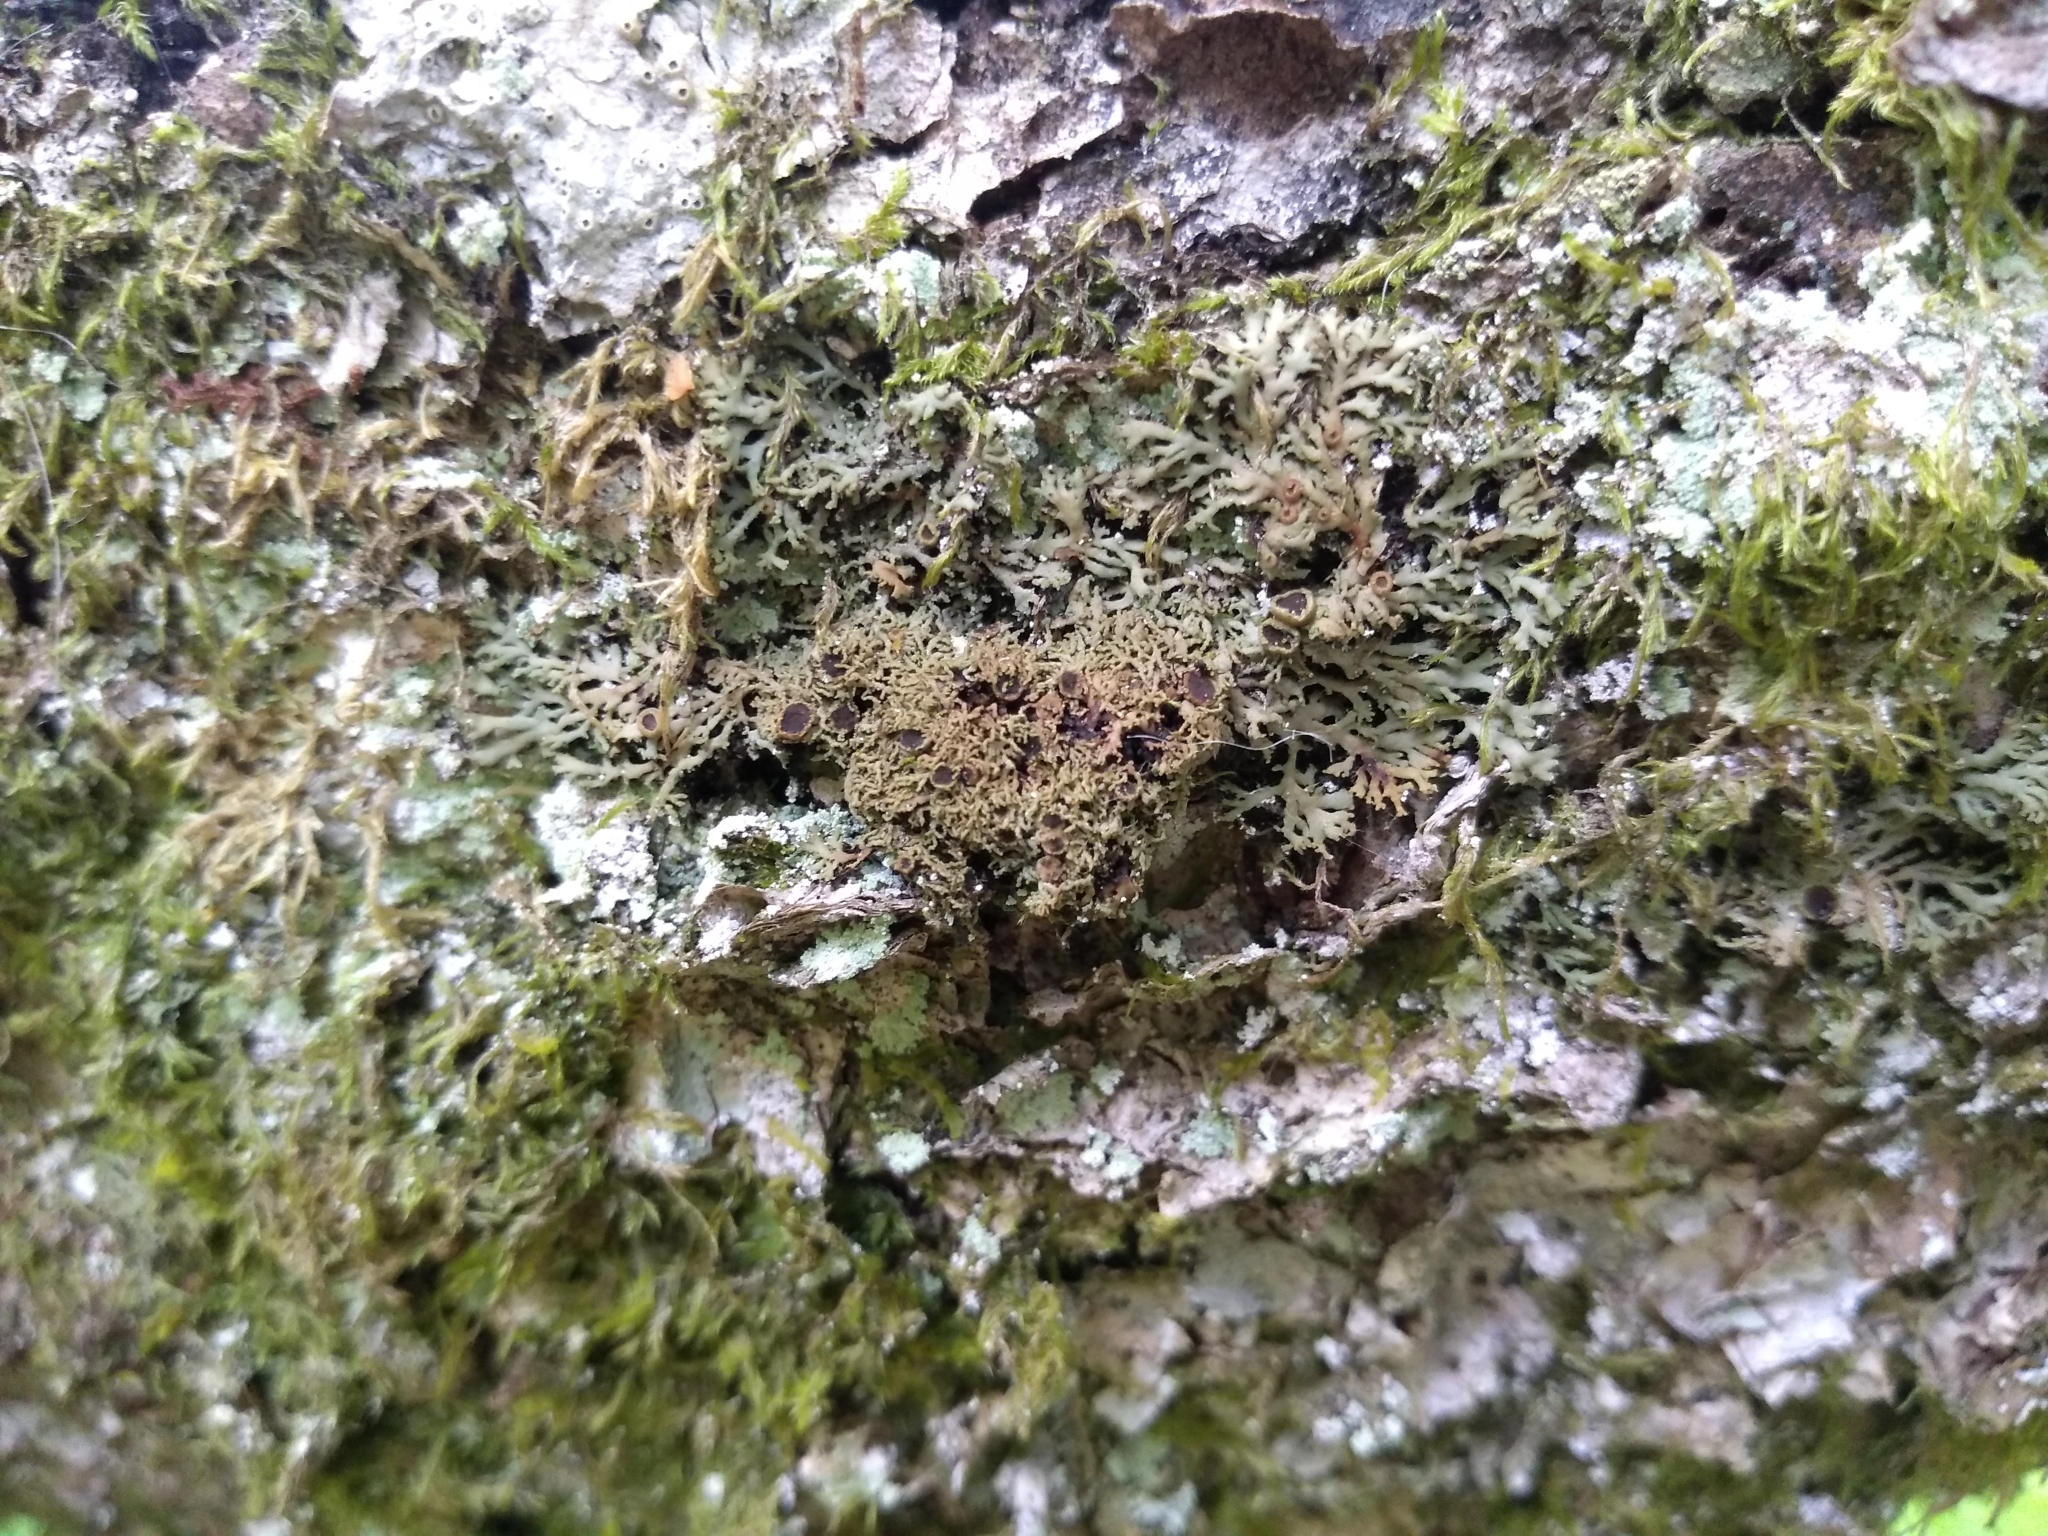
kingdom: Fungi
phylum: Ascomycota
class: Lecanoromycetes
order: Caliciales
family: Physciaceae
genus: Kurokawia
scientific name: Kurokawia palmulata
